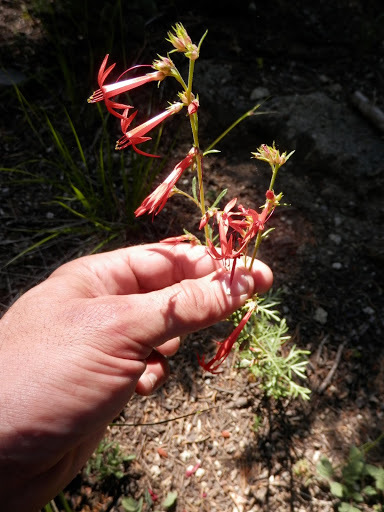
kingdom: Plantae
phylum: Tracheophyta
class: Magnoliopsida
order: Ericales
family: Polemoniaceae
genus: Ipomopsis
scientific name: Ipomopsis aggregata
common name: Scarlet gilia
